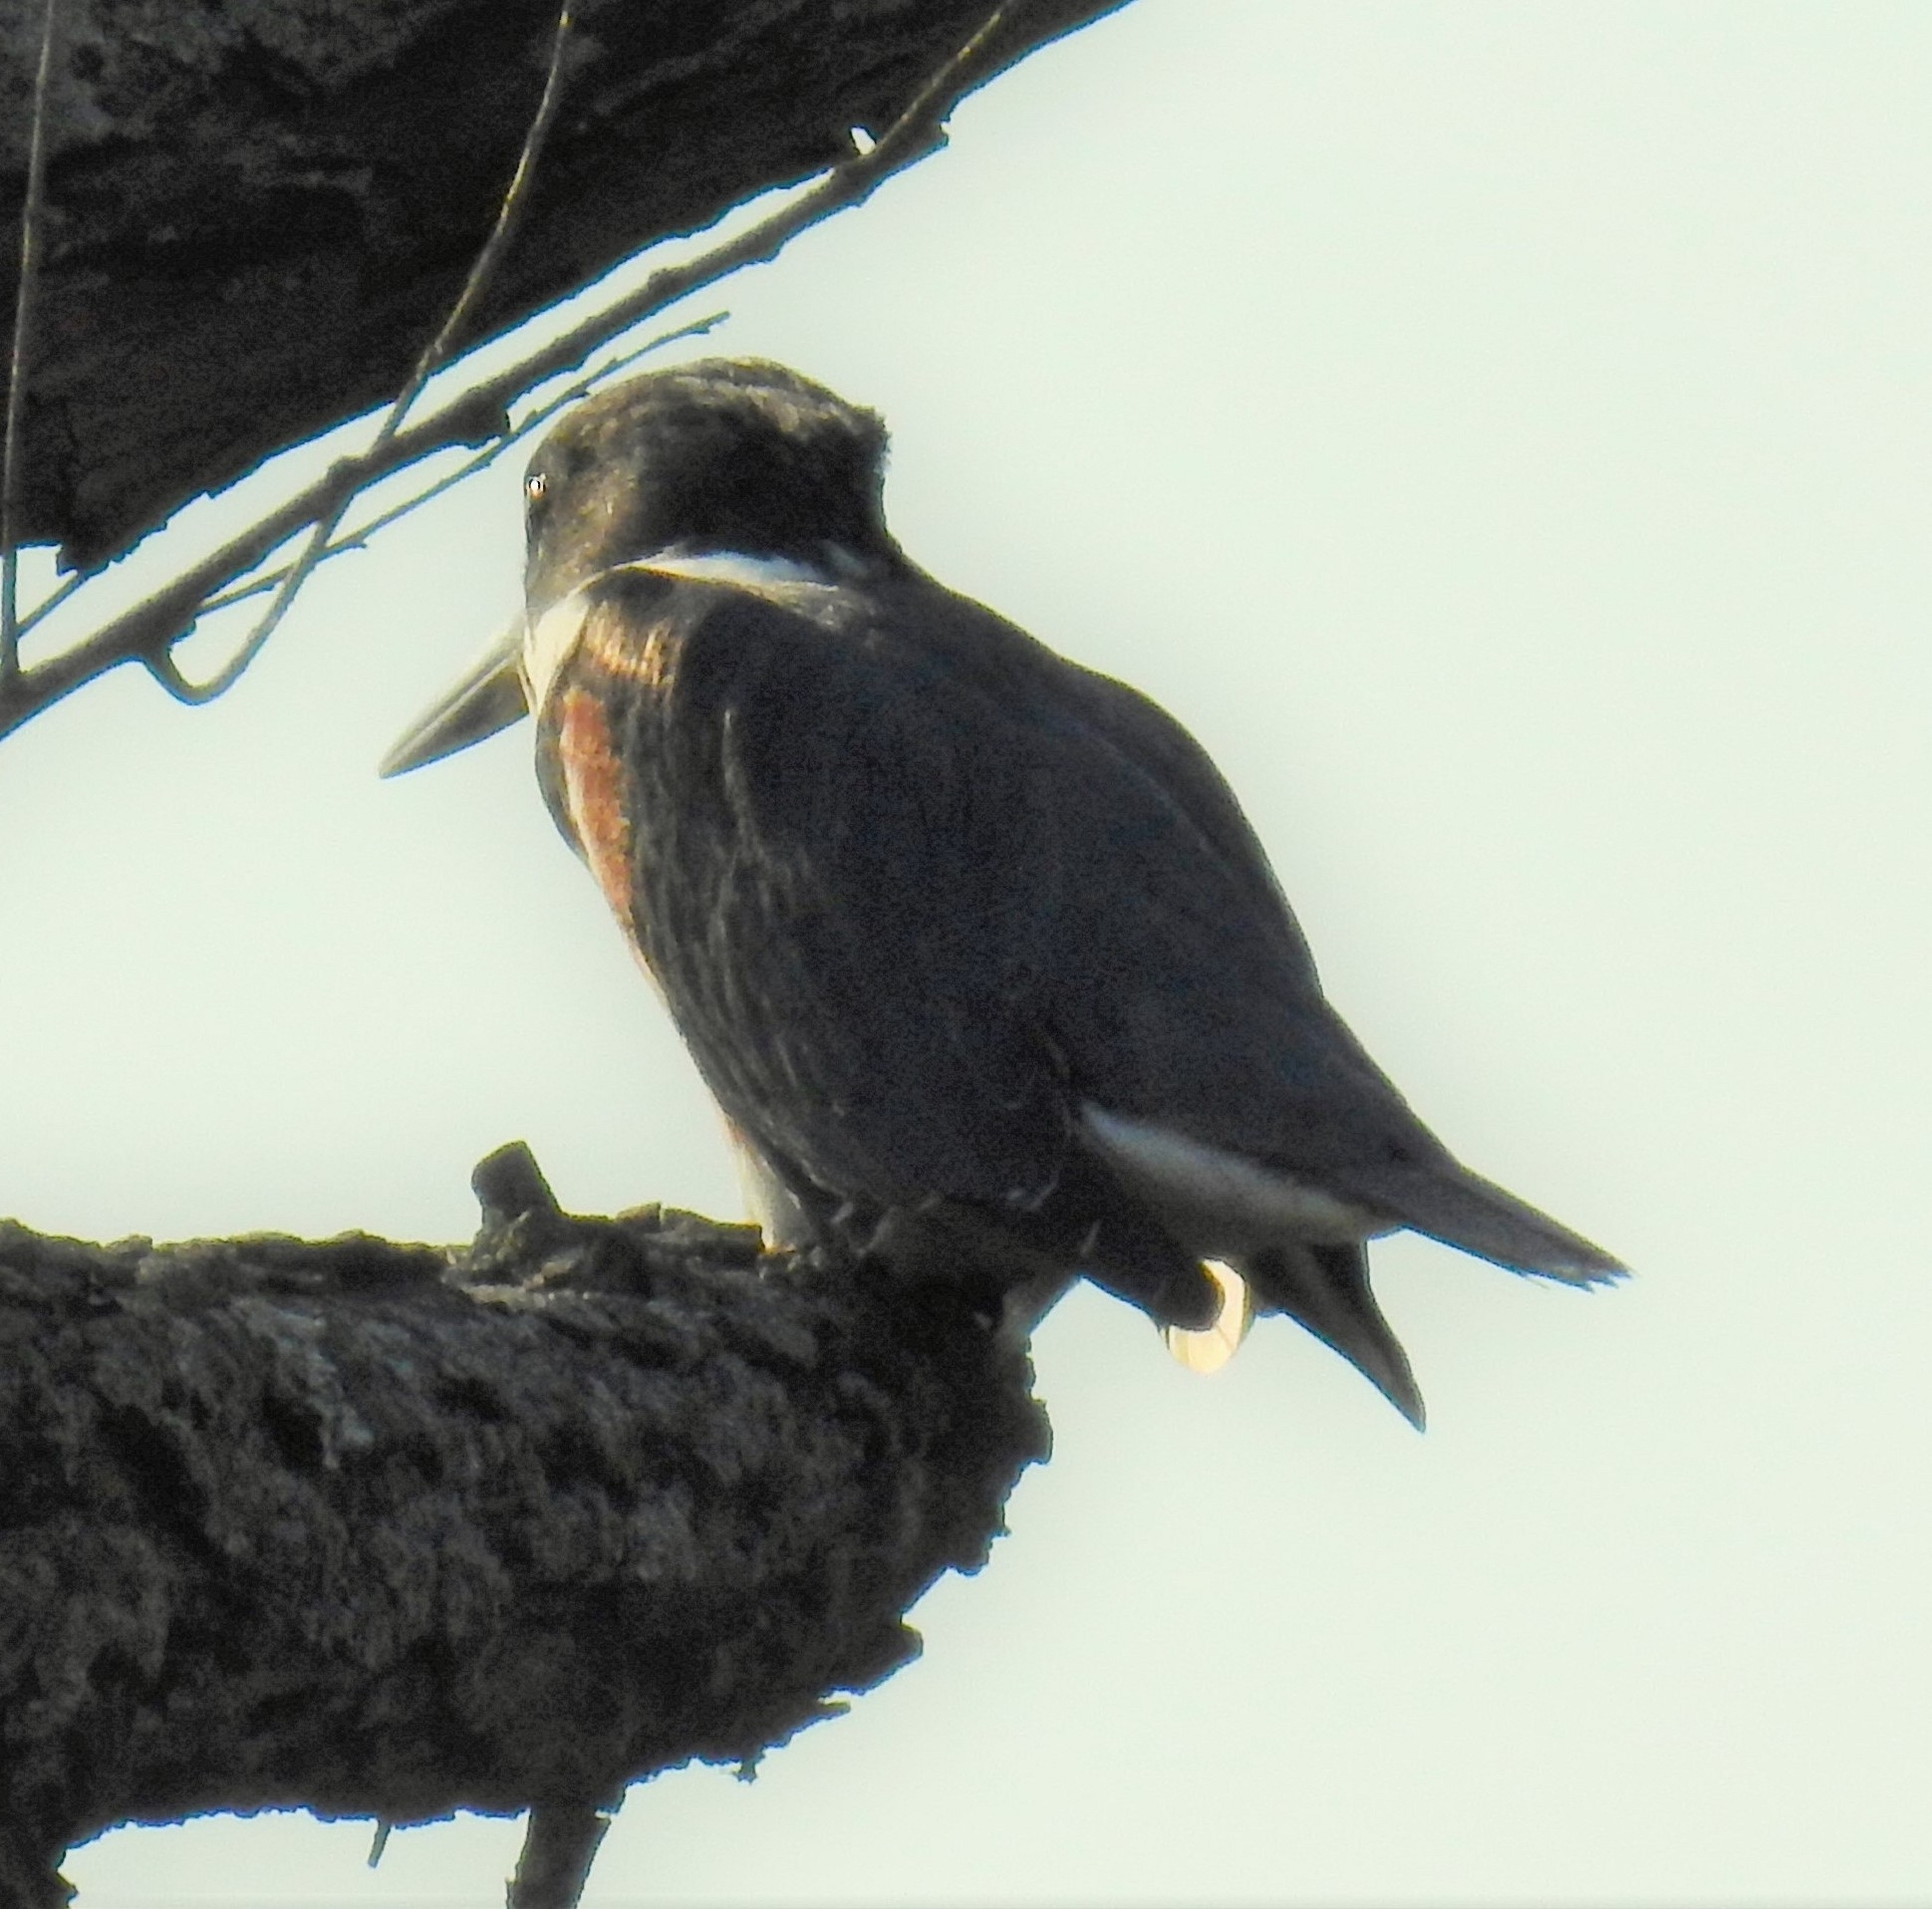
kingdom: Animalia
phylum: Chordata
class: Aves
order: Coraciiformes
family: Alcedinidae
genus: Megaceryle
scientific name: Megaceryle alcyon
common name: Belted kingfisher
